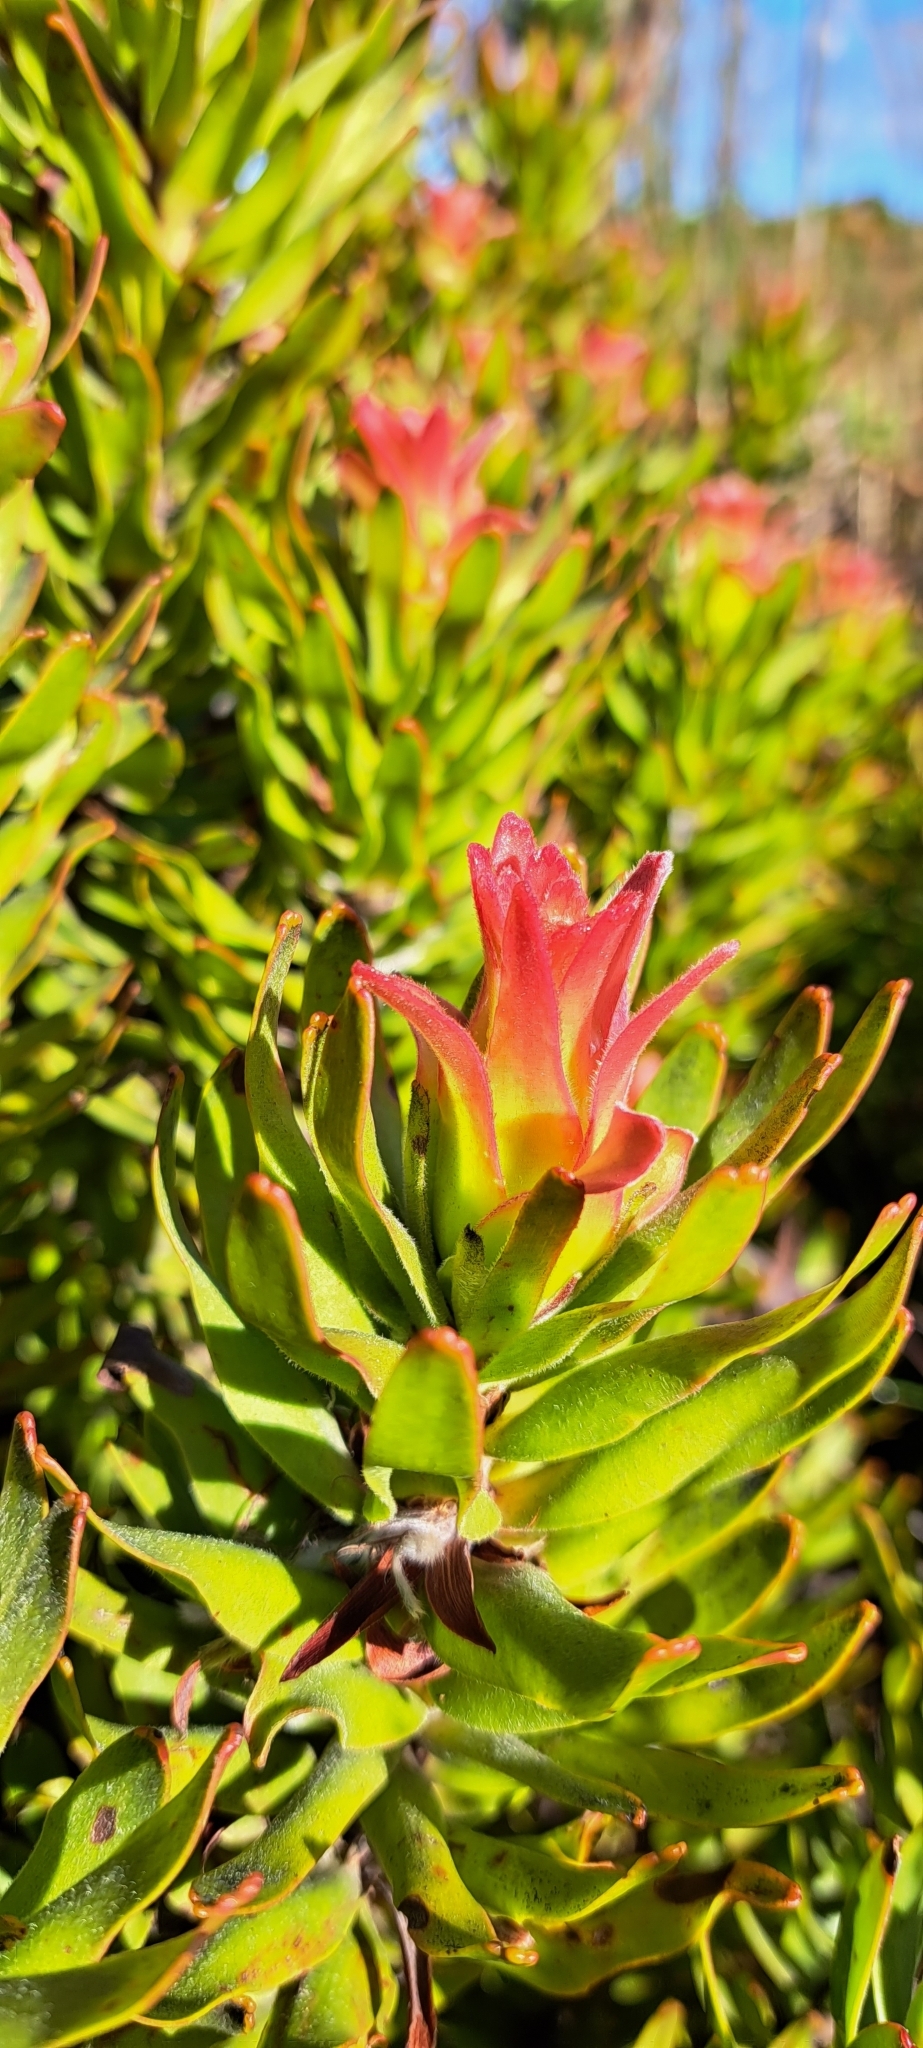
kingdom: Plantae
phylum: Tracheophyta
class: Magnoliopsida
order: Proteales
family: Proteaceae
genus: Mimetes
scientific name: Mimetes cucullatus
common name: Common pagoda
